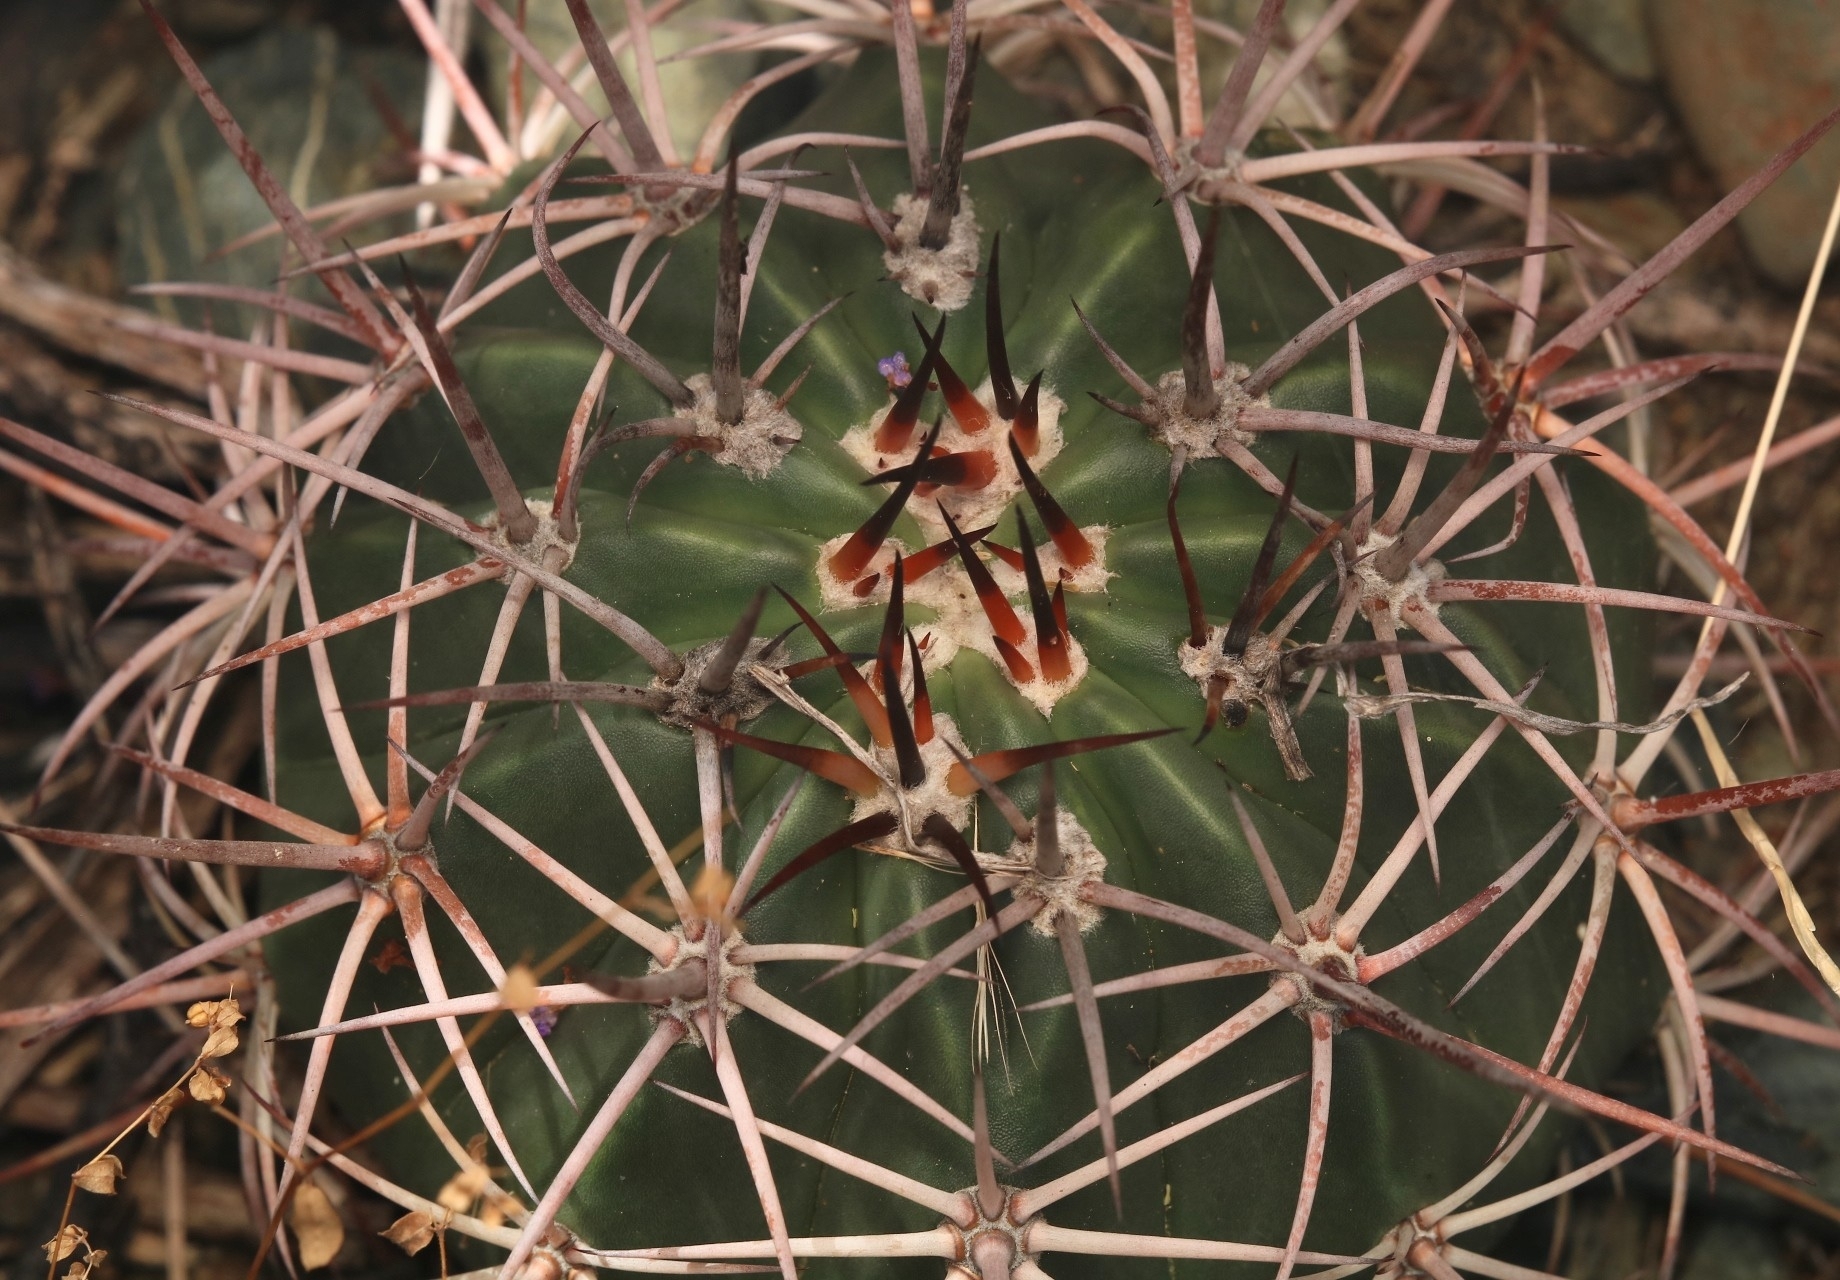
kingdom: Plantae
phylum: Tracheophyta
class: Magnoliopsida
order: Caryophyllales
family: Cactaceae
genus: Melocactus
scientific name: Melocactus curvispinus
